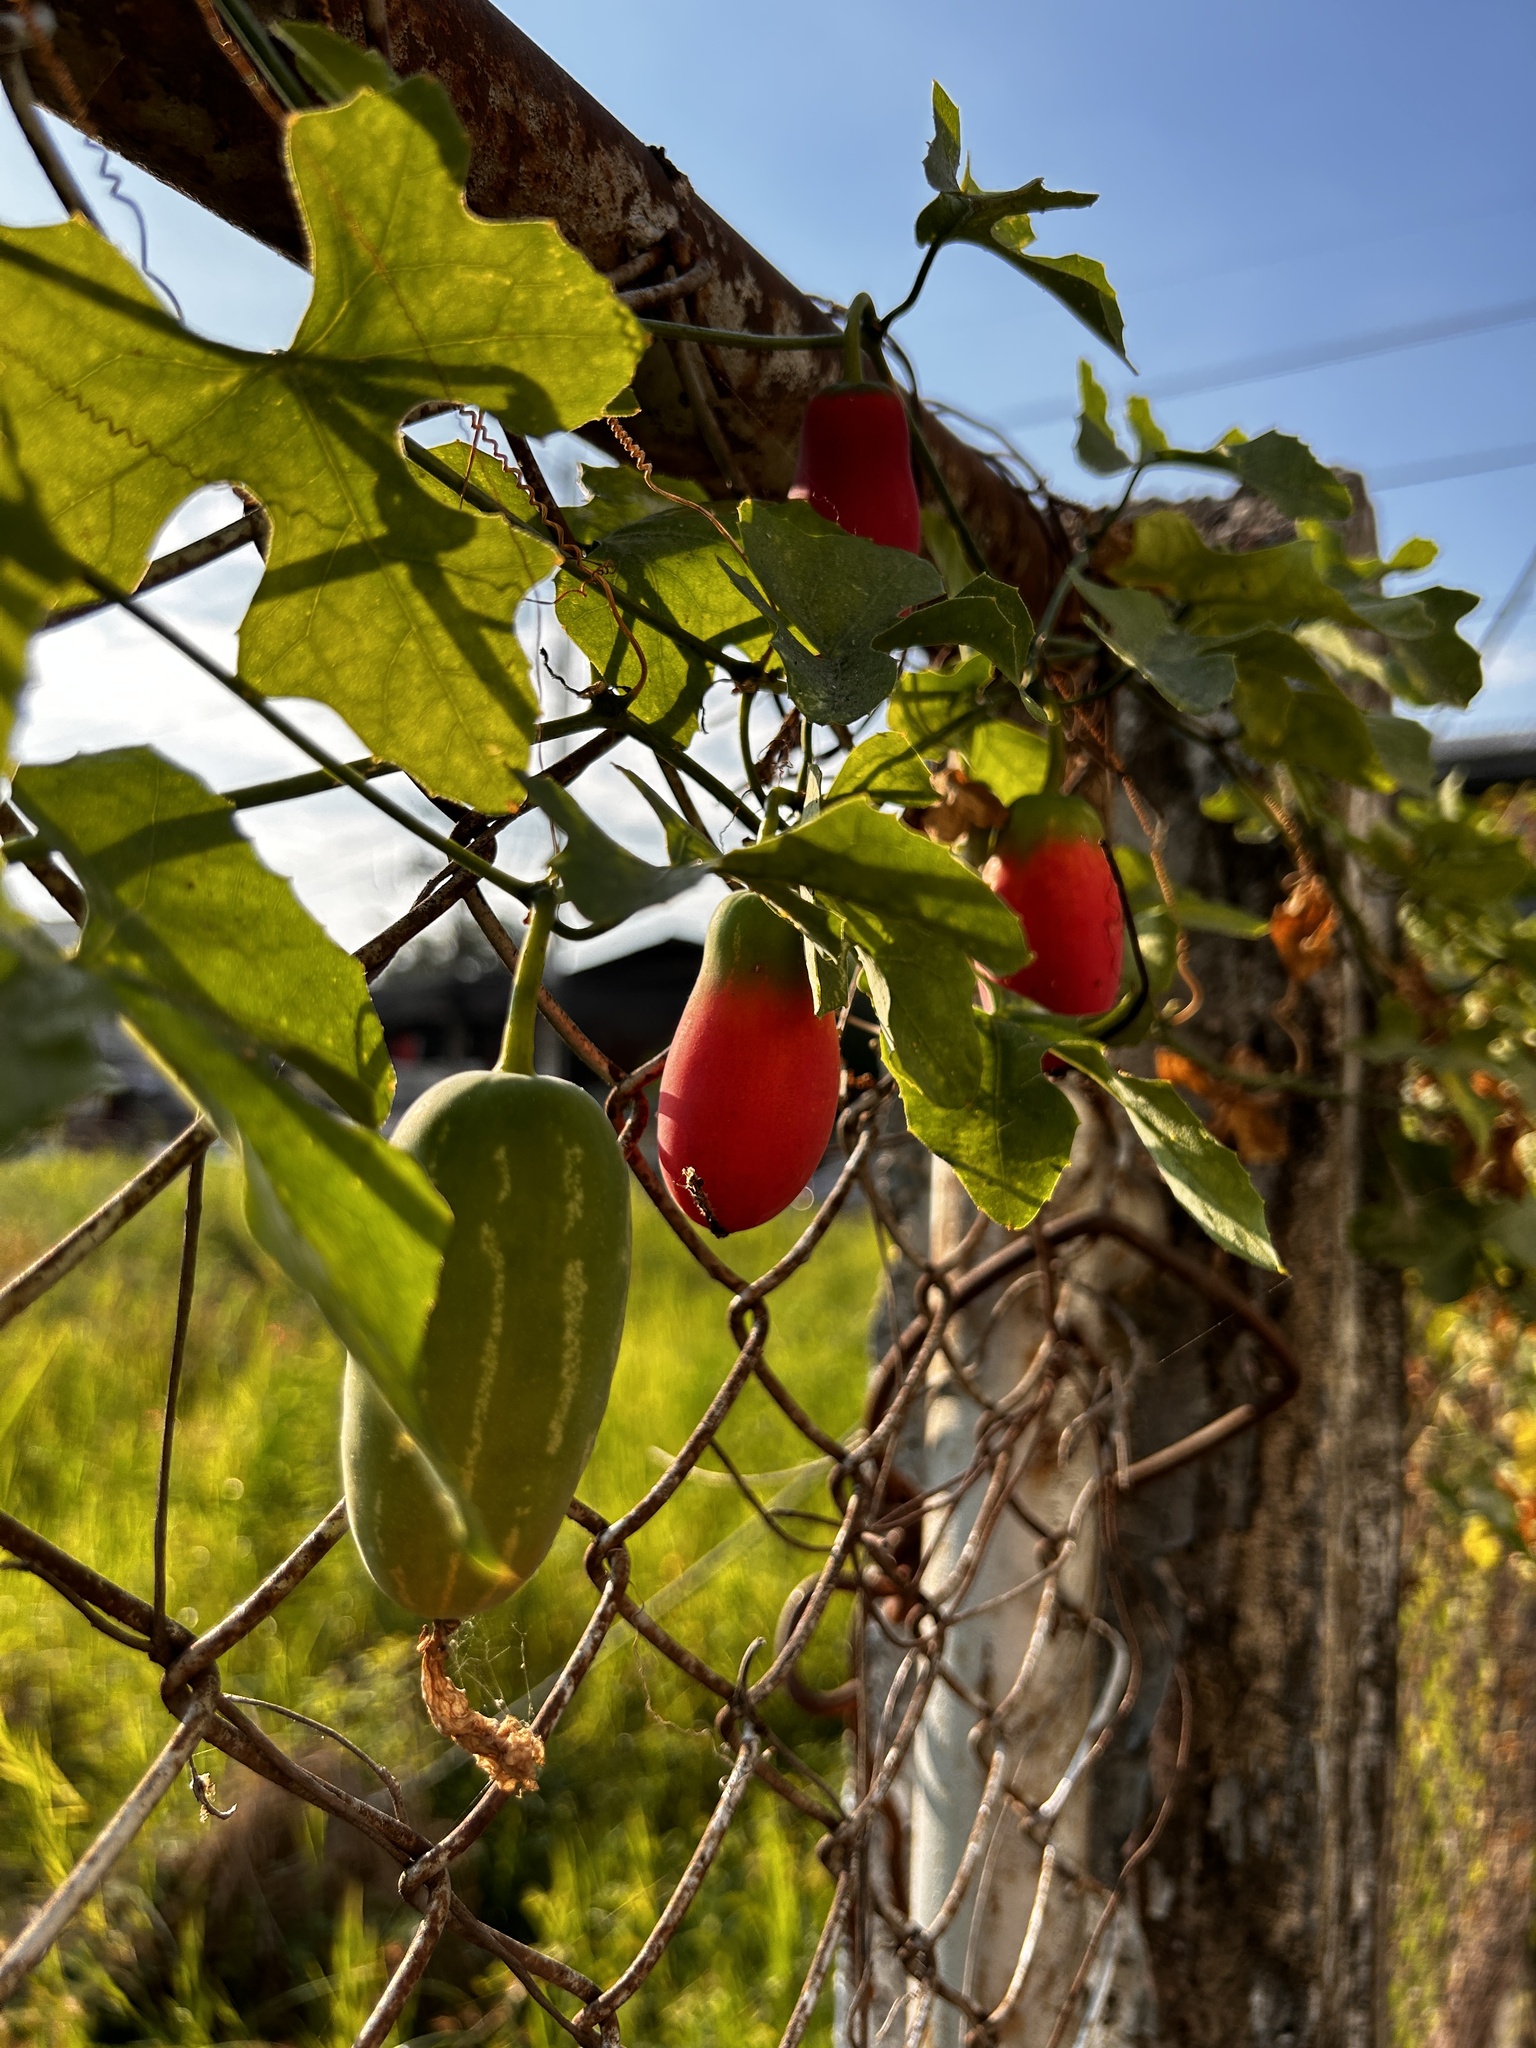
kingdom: Plantae
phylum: Tracheophyta
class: Magnoliopsida
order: Cucurbitales
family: Cucurbitaceae
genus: Coccinia
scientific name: Coccinia grandis
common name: Ivy gourd
